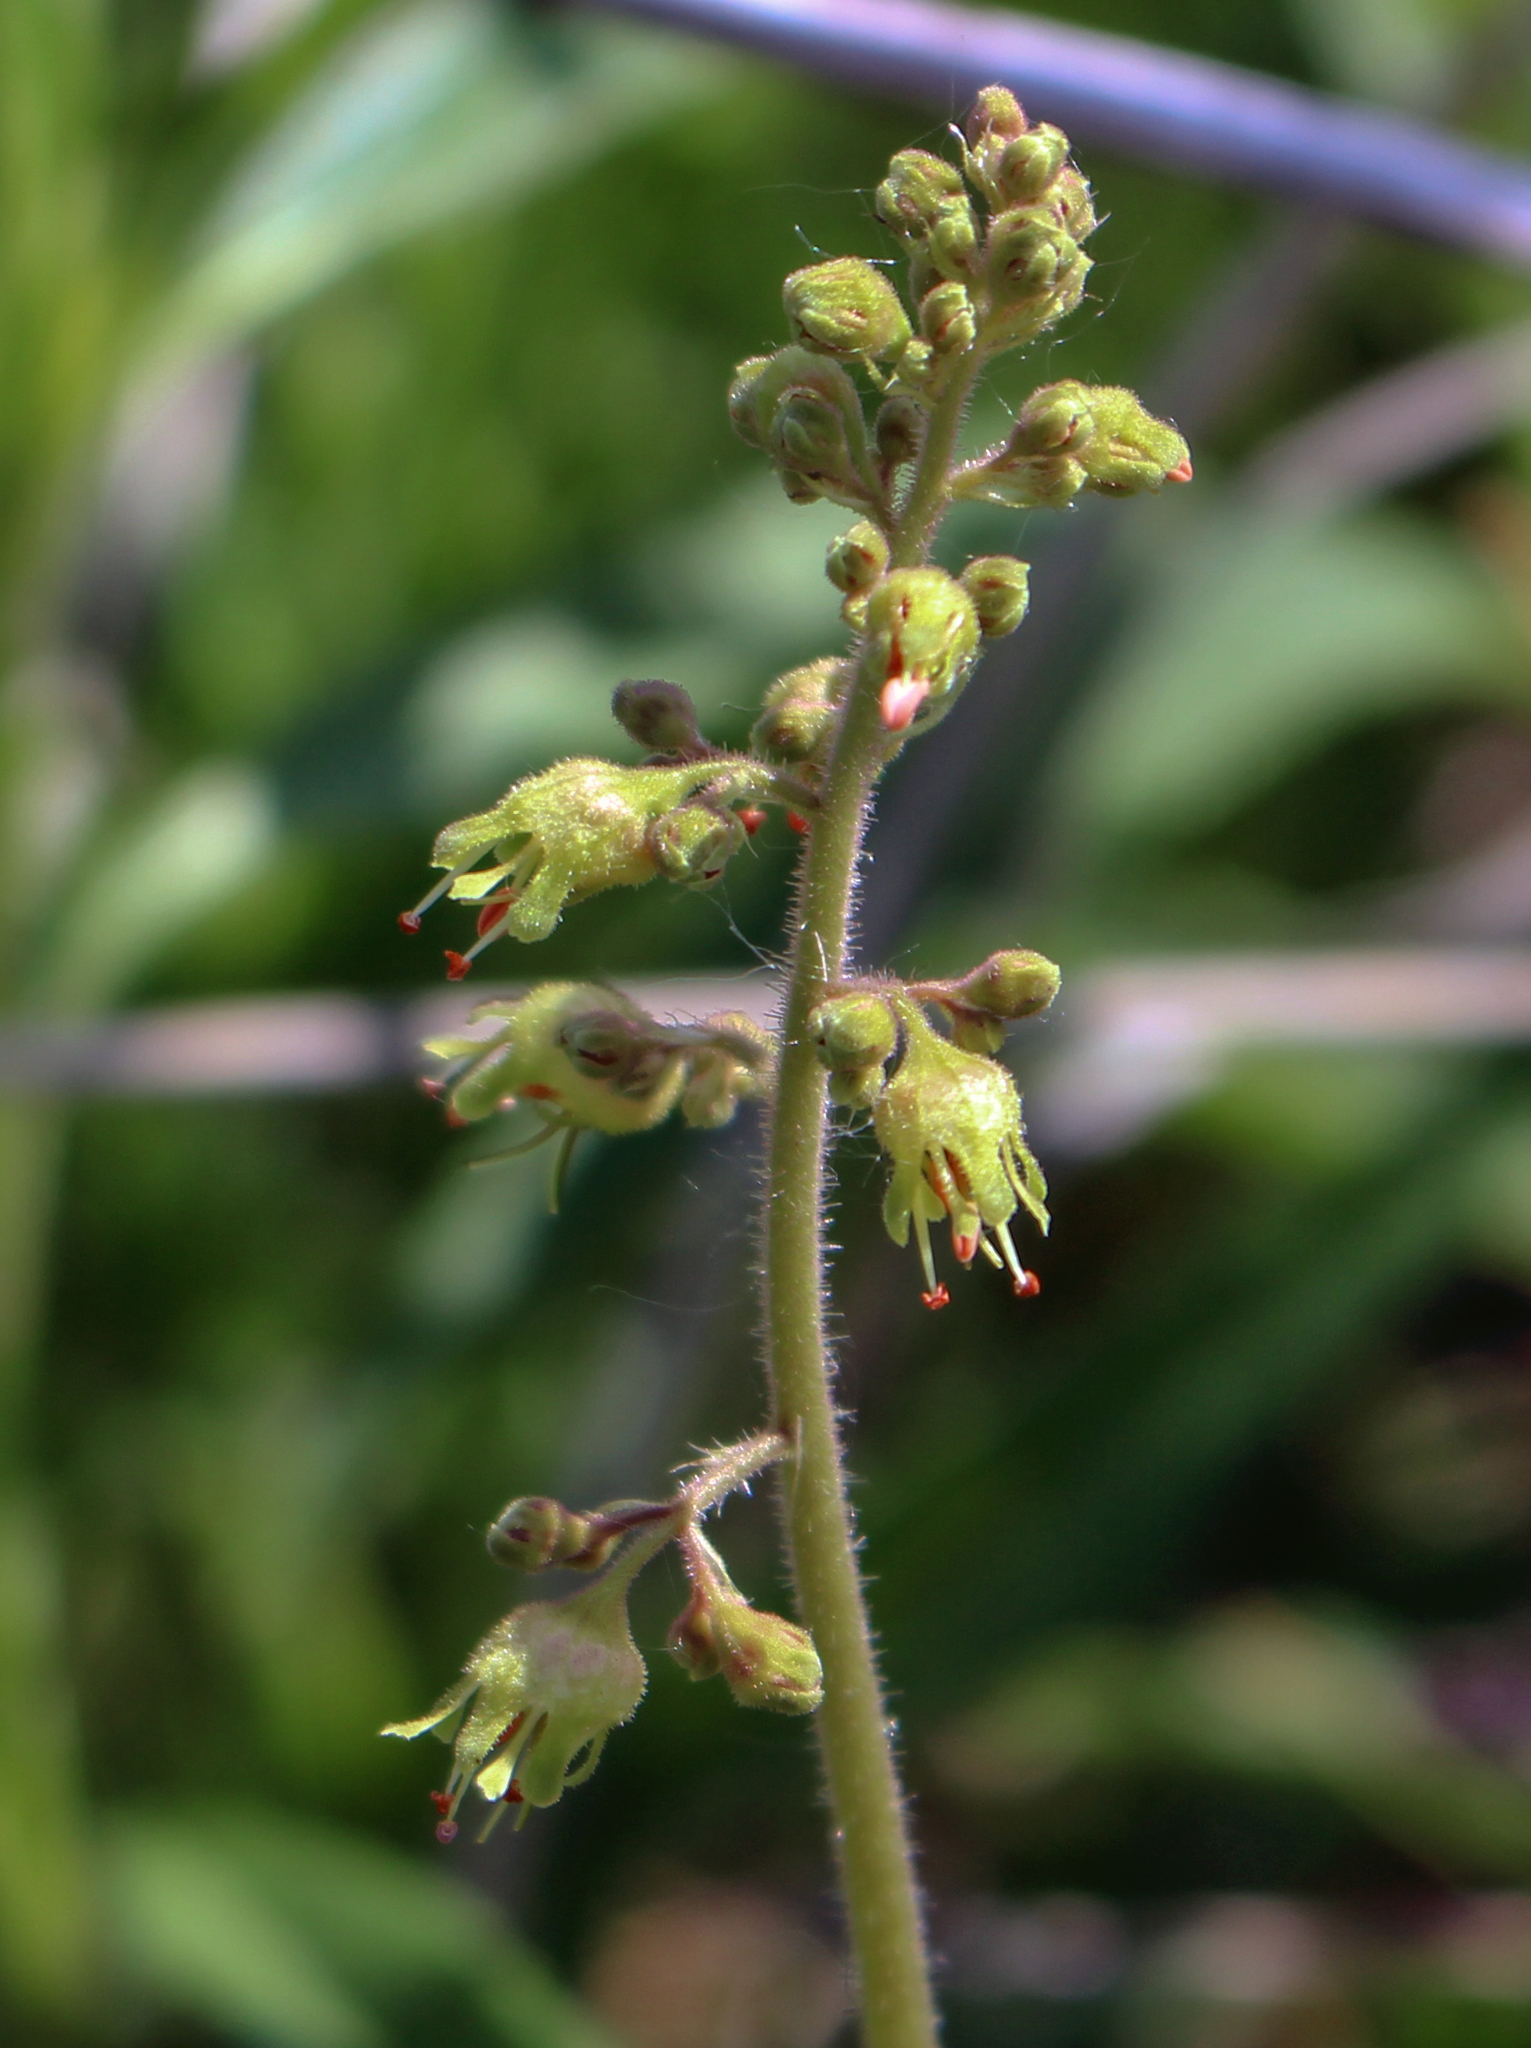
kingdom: Plantae
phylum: Tracheophyta
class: Magnoliopsida
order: Saxifragales
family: Saxifragaceae
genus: Heuchera
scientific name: Heuchera richardsonii
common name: Richardson's alumroot
